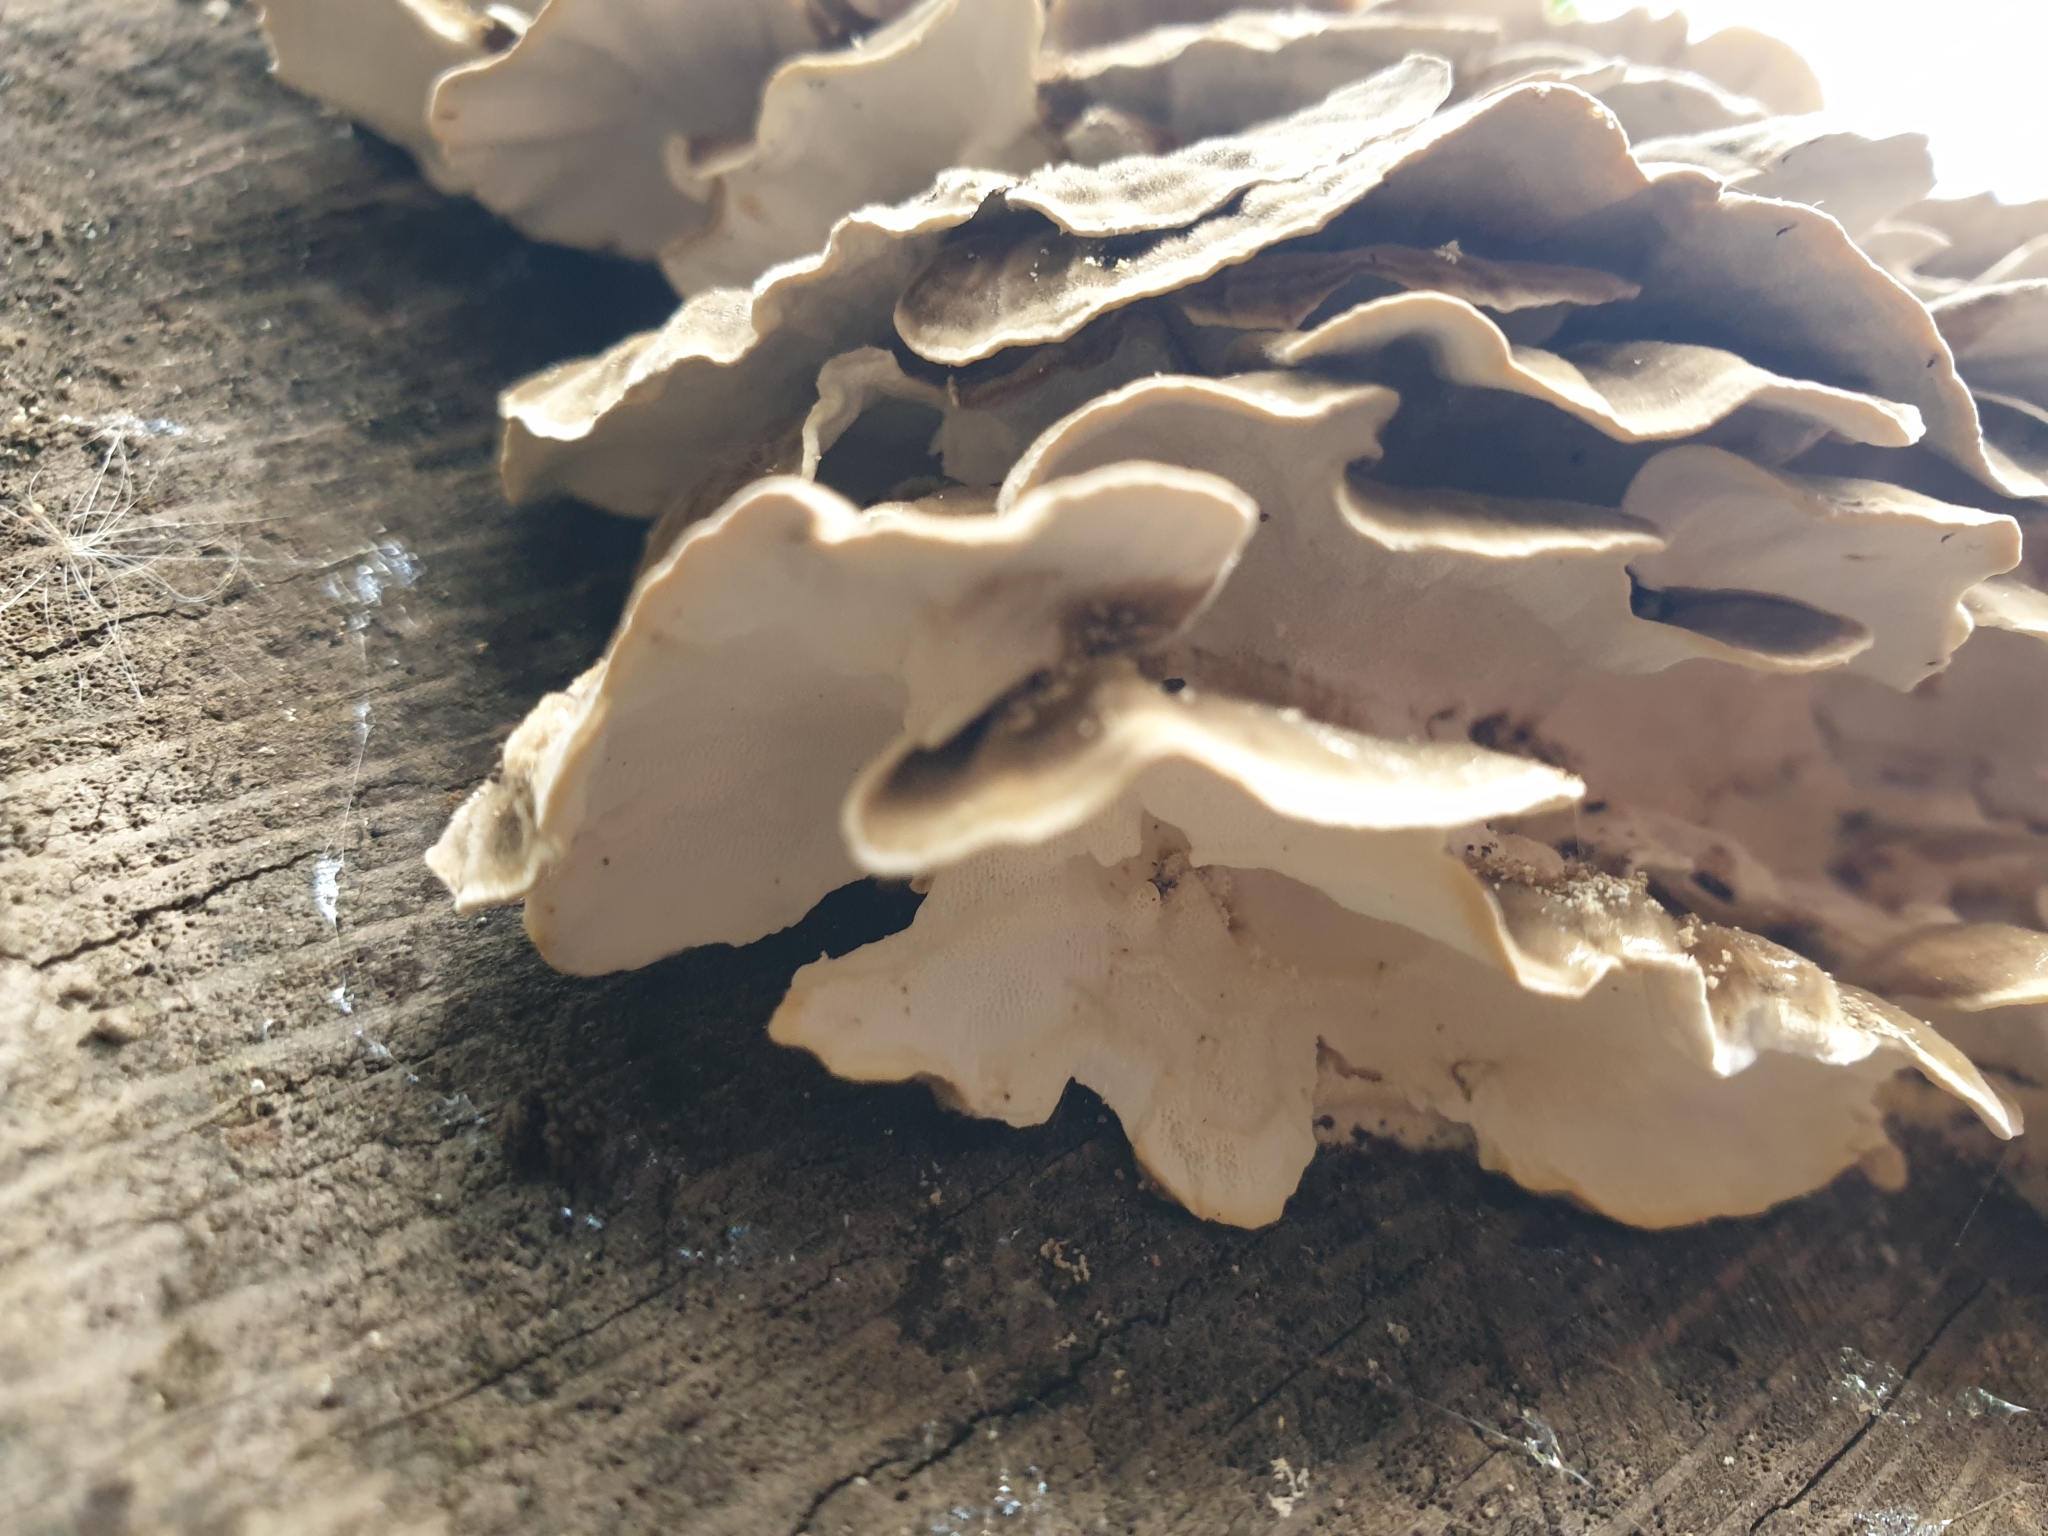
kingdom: Fungi
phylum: Basidiomycota
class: Agaricomycetes
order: Polyporales
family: Polyporaceae
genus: Trametes
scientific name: Trametes versicolor
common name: Turkeytail
